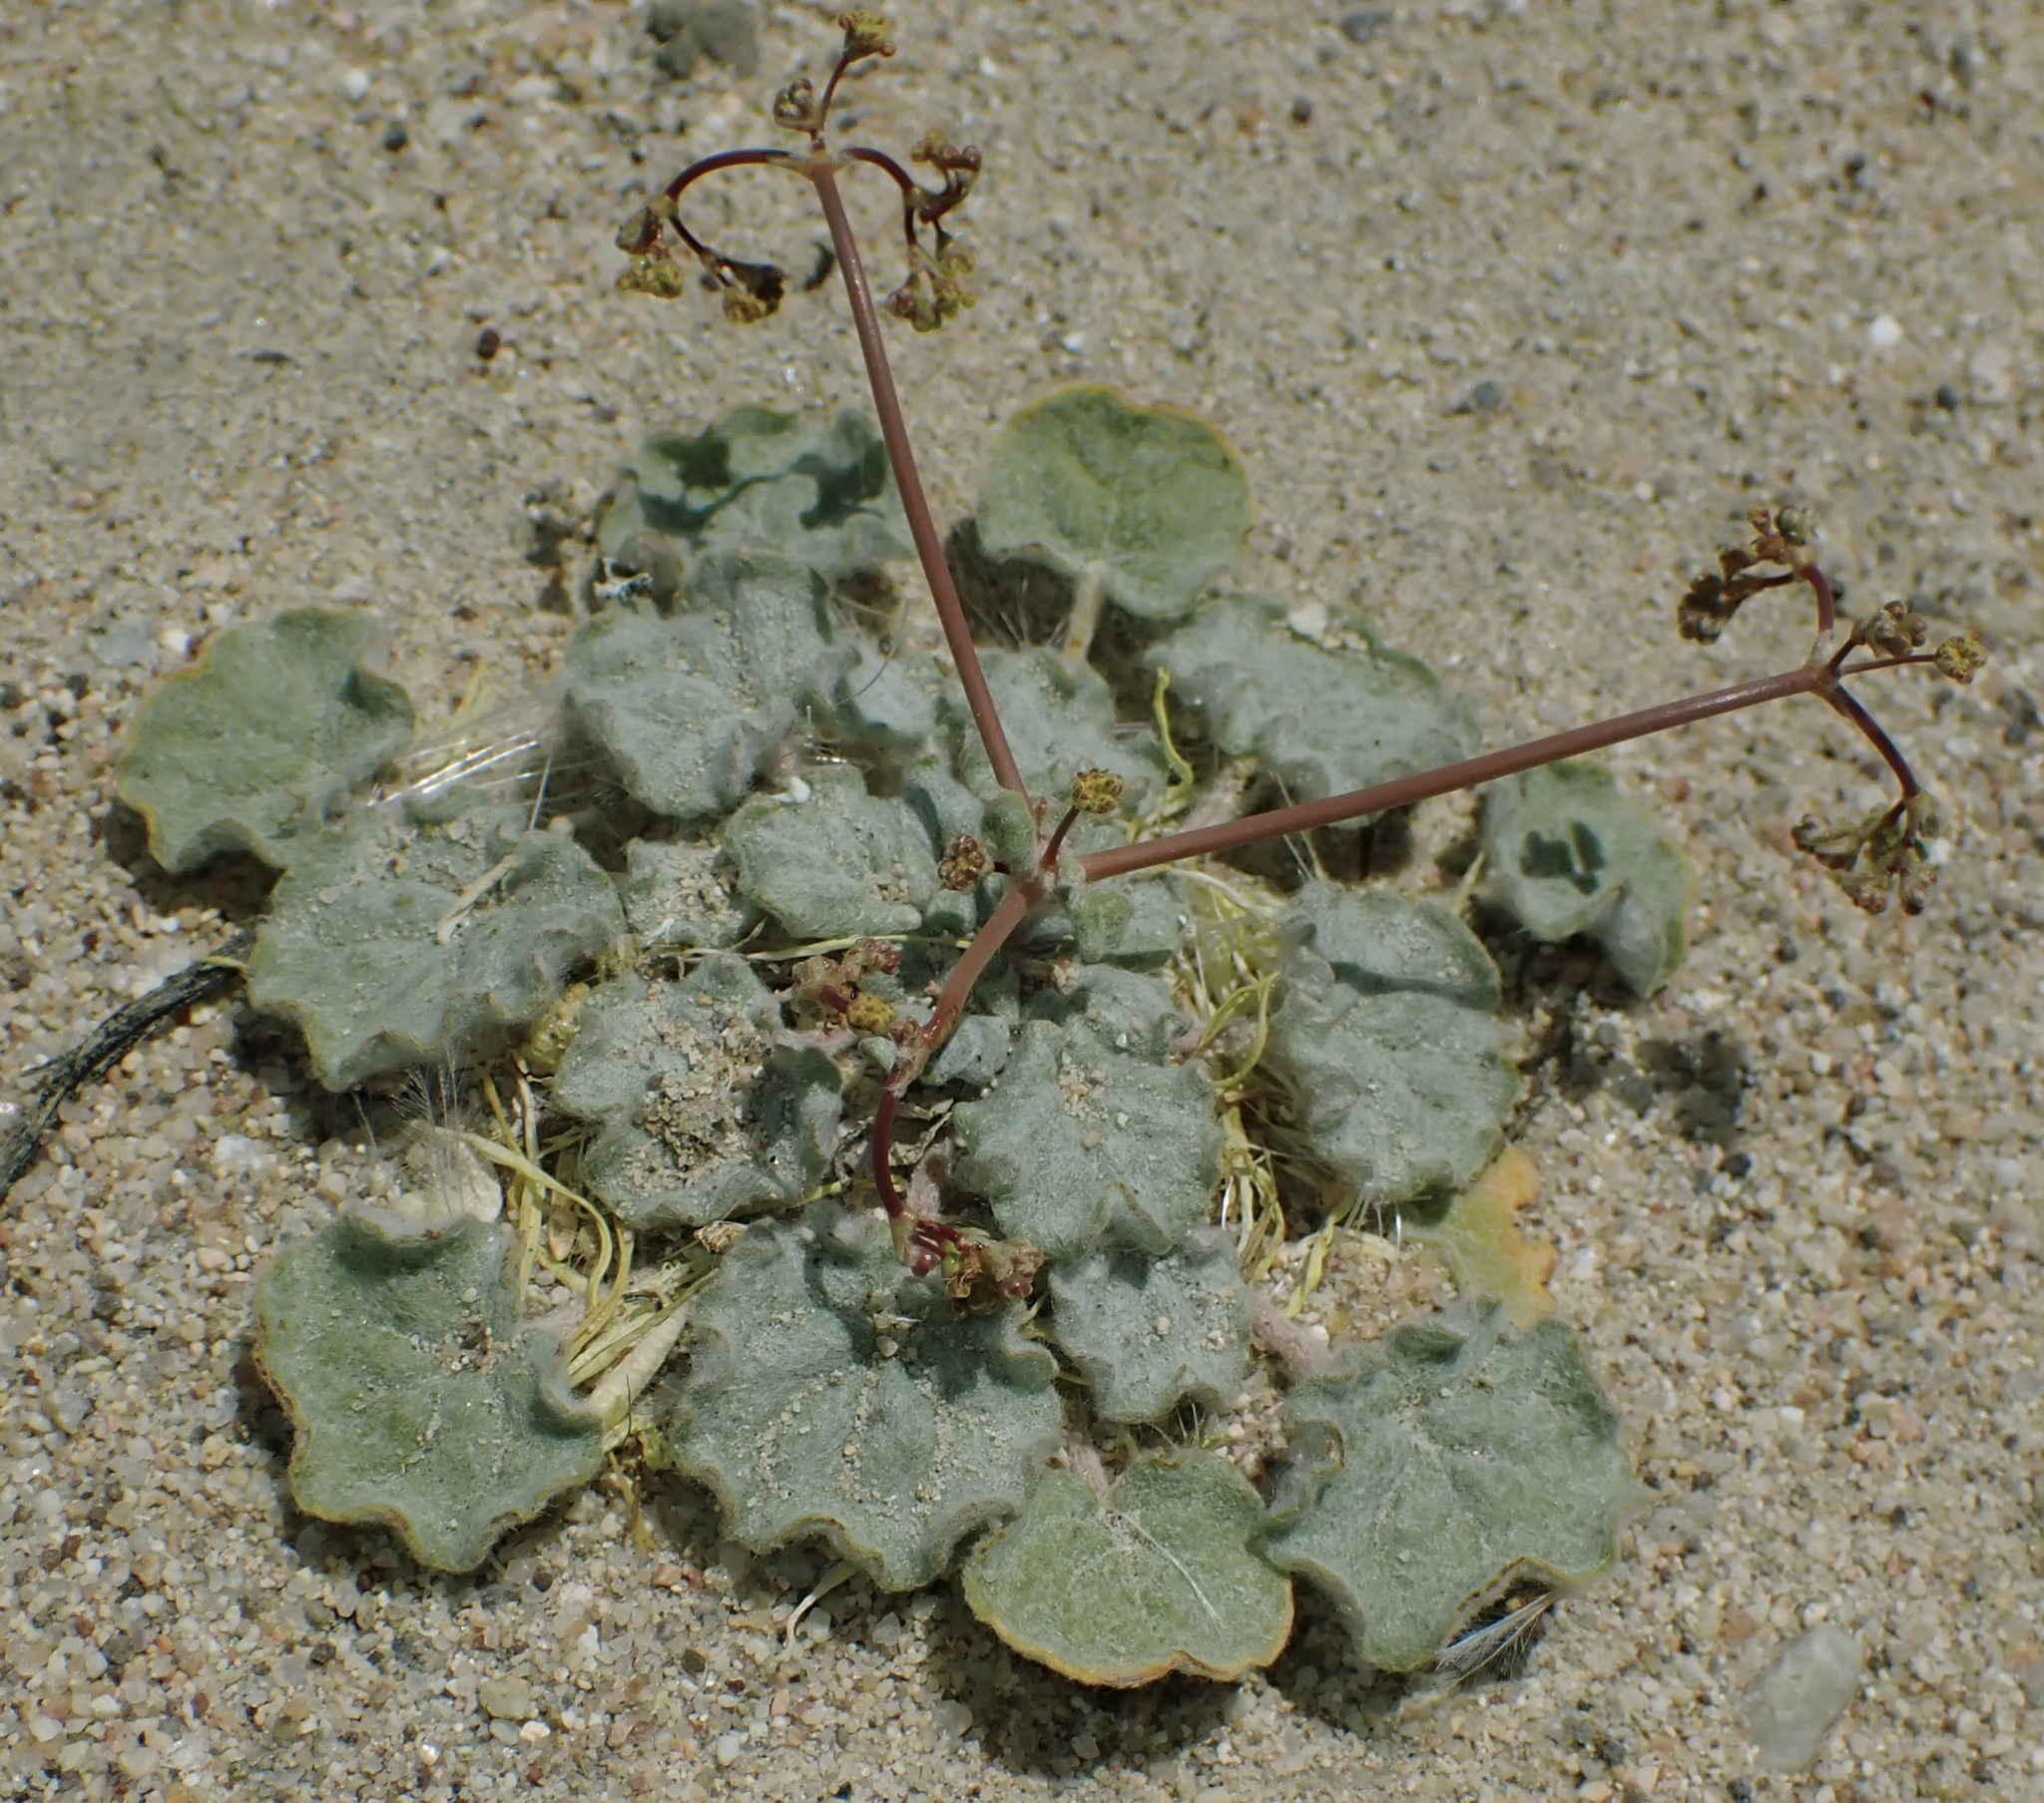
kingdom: Plantae
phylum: Tracheophyta
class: Magnoliopsida
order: Caryophyllales
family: Polygonaceae
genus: Eriogonum
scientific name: Eriogonum reniforme
